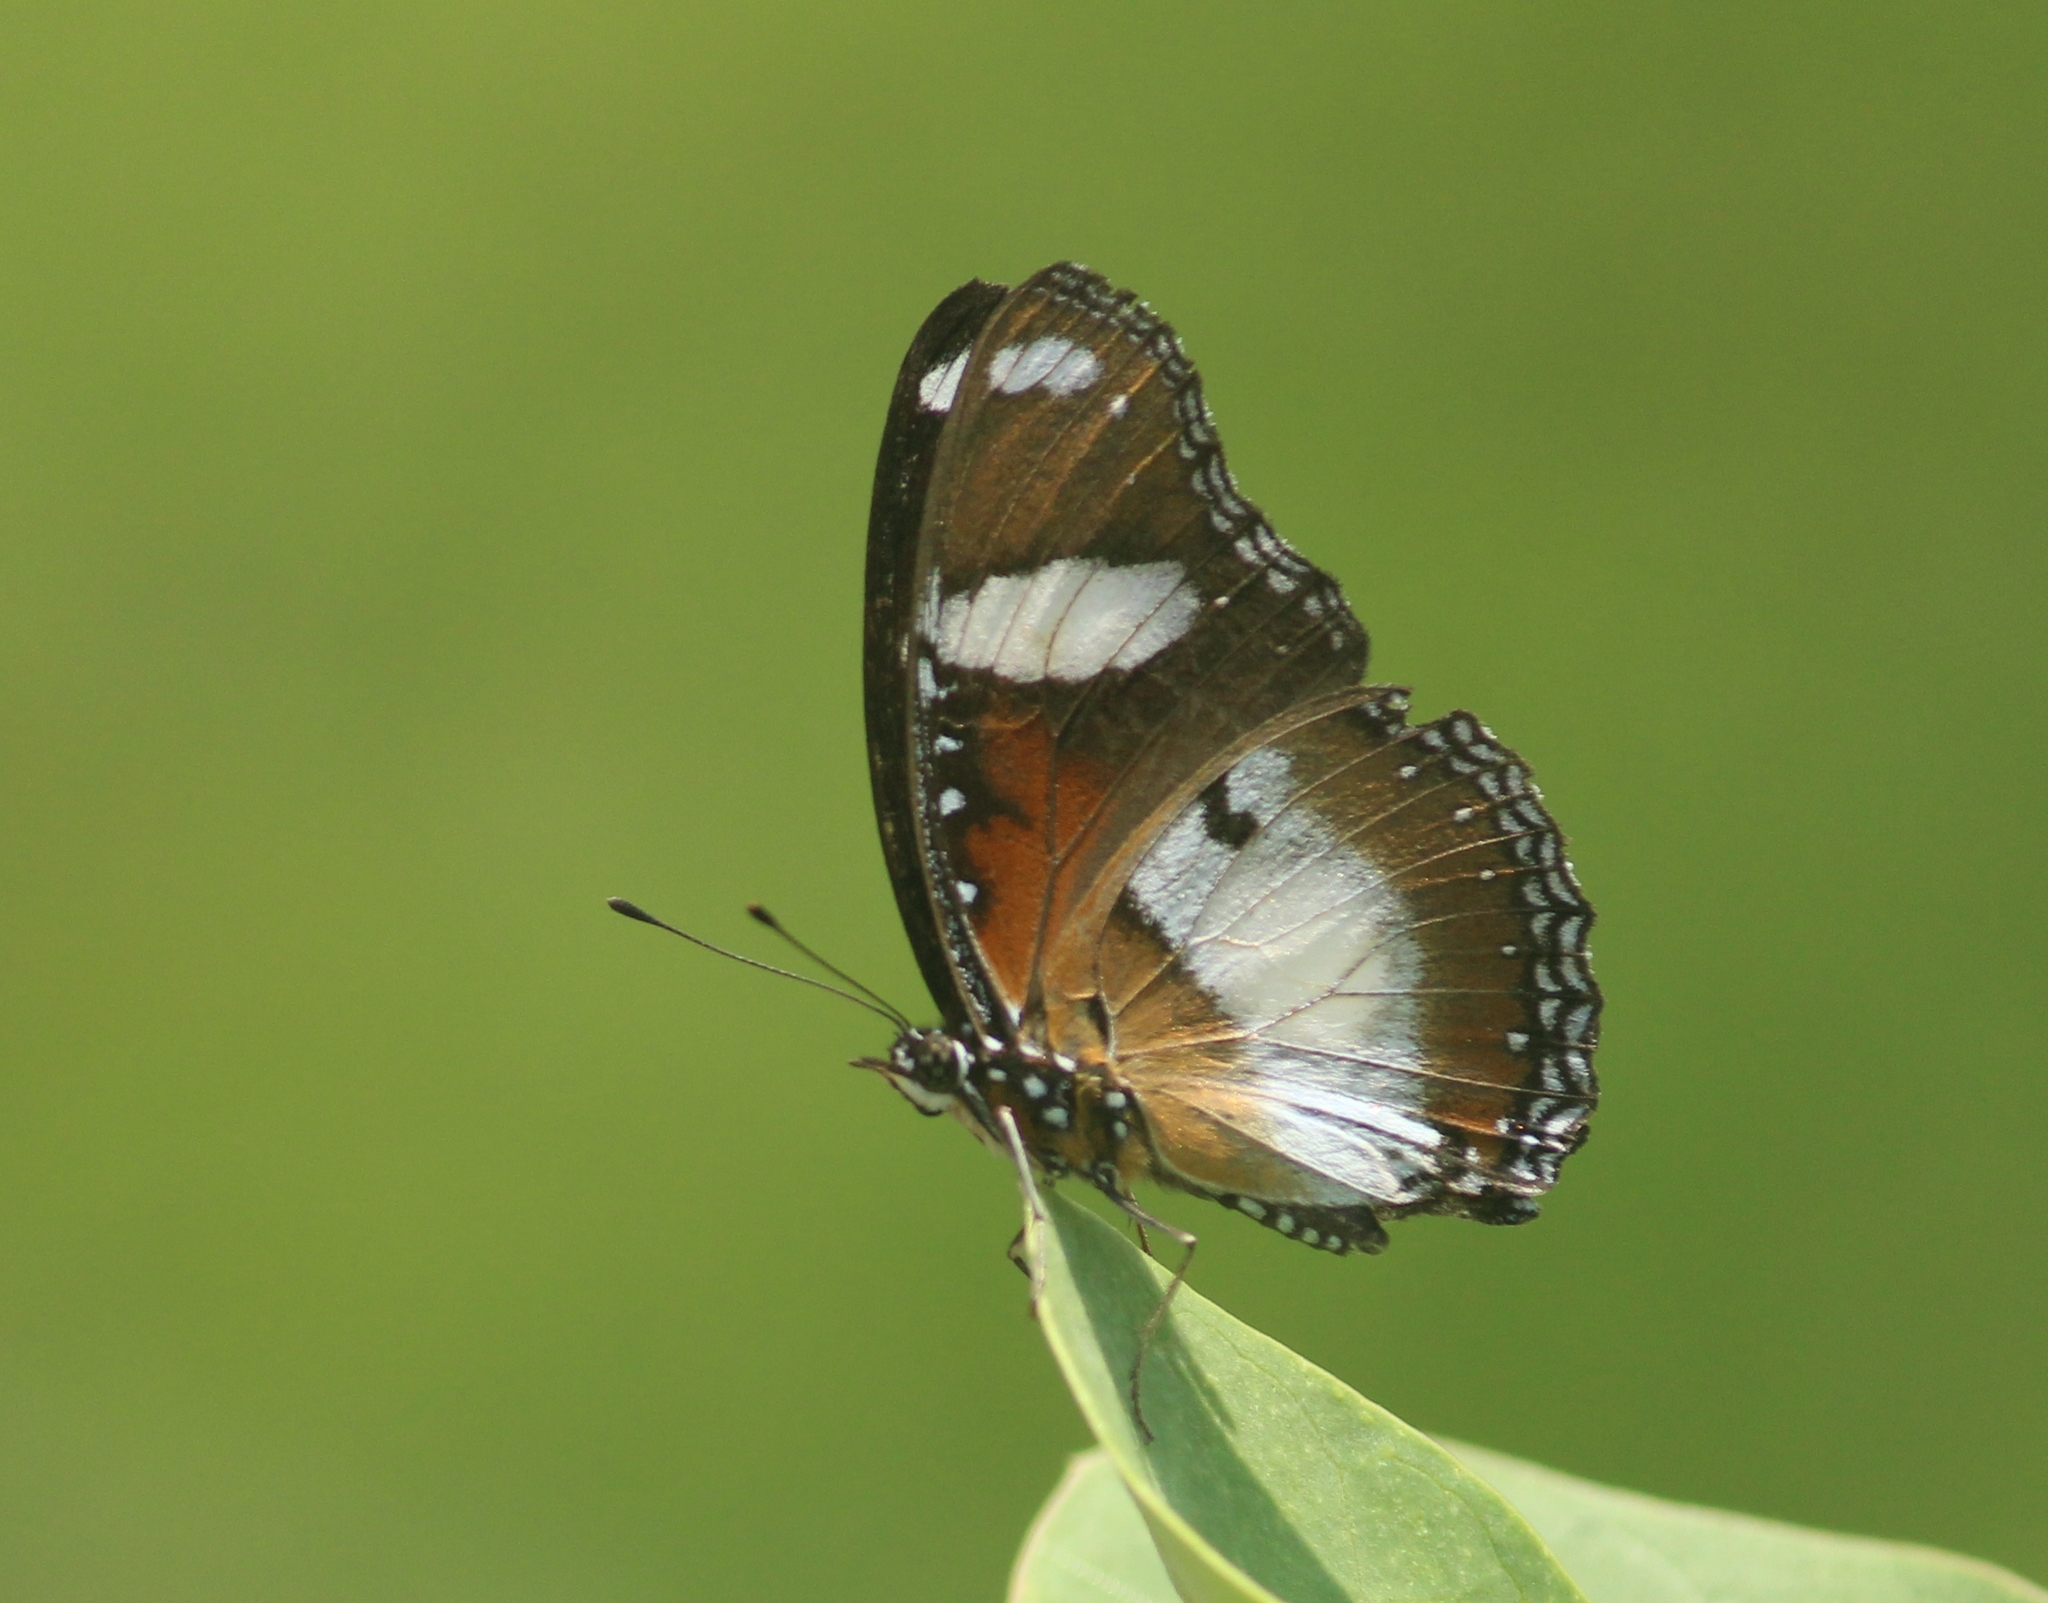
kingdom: Animalia
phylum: Arthropoda
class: Insecta
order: Lepidoptera
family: Nymphalidae
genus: Hypolimnas
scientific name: Hypolimnas misippus
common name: False plain tiger
